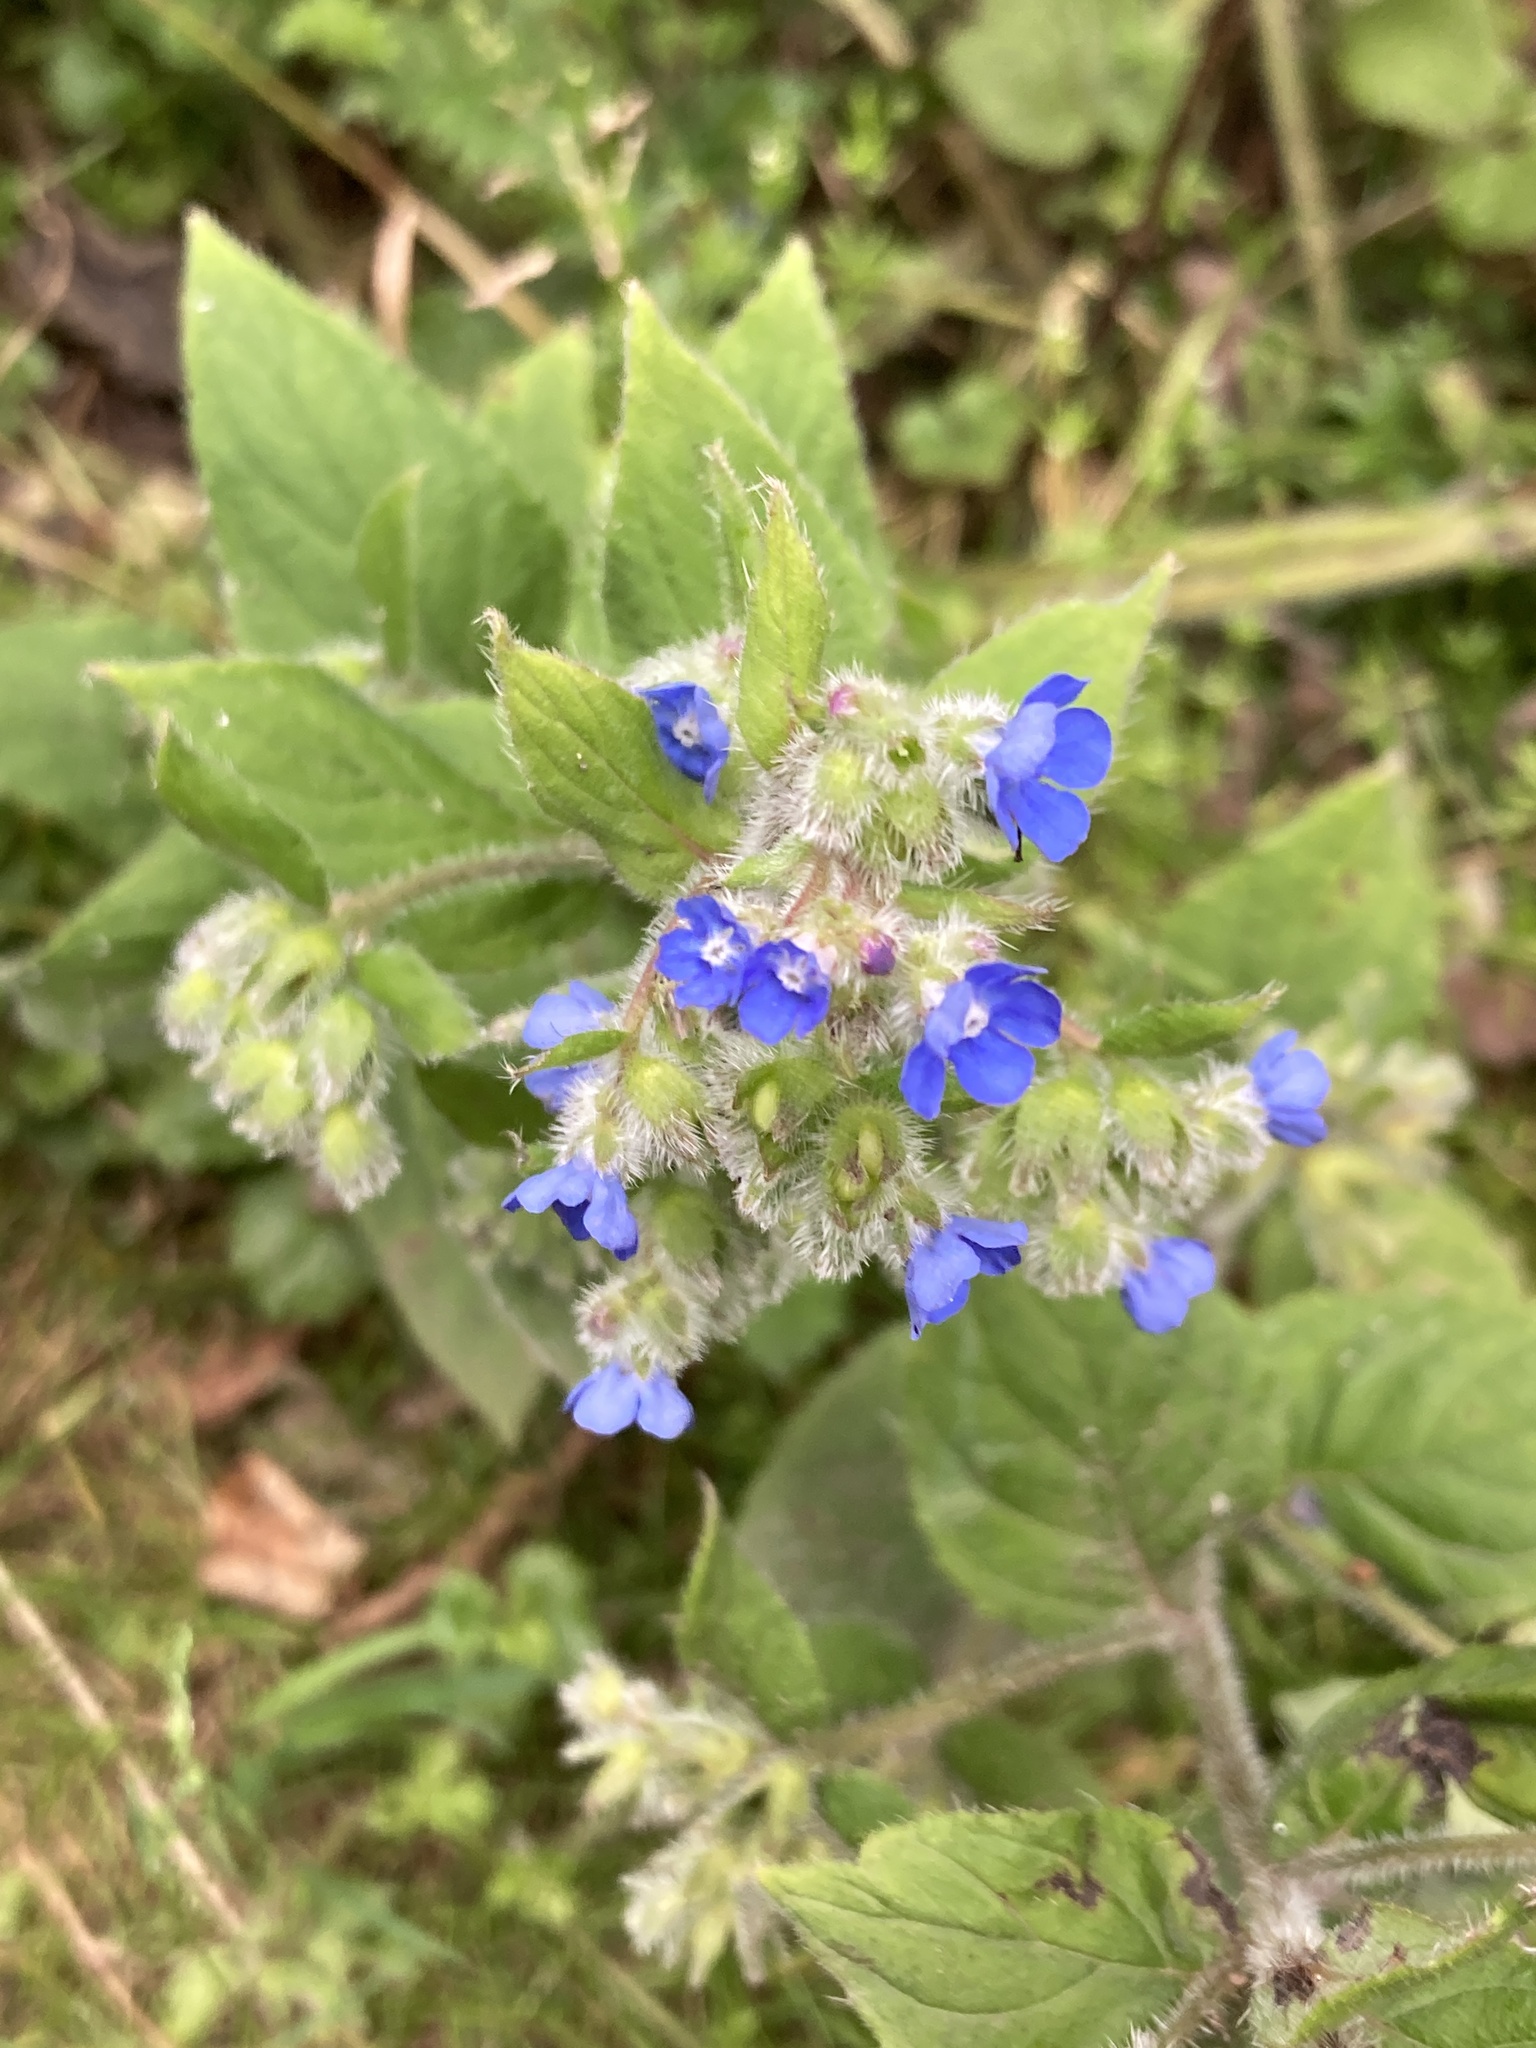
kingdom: Plantae
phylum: Tracheophyta
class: Magnoliopsida
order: Boraginales
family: Boraginaceae
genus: Pentaglottis
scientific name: Pentaglottis sempervirens
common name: Green alkanet
